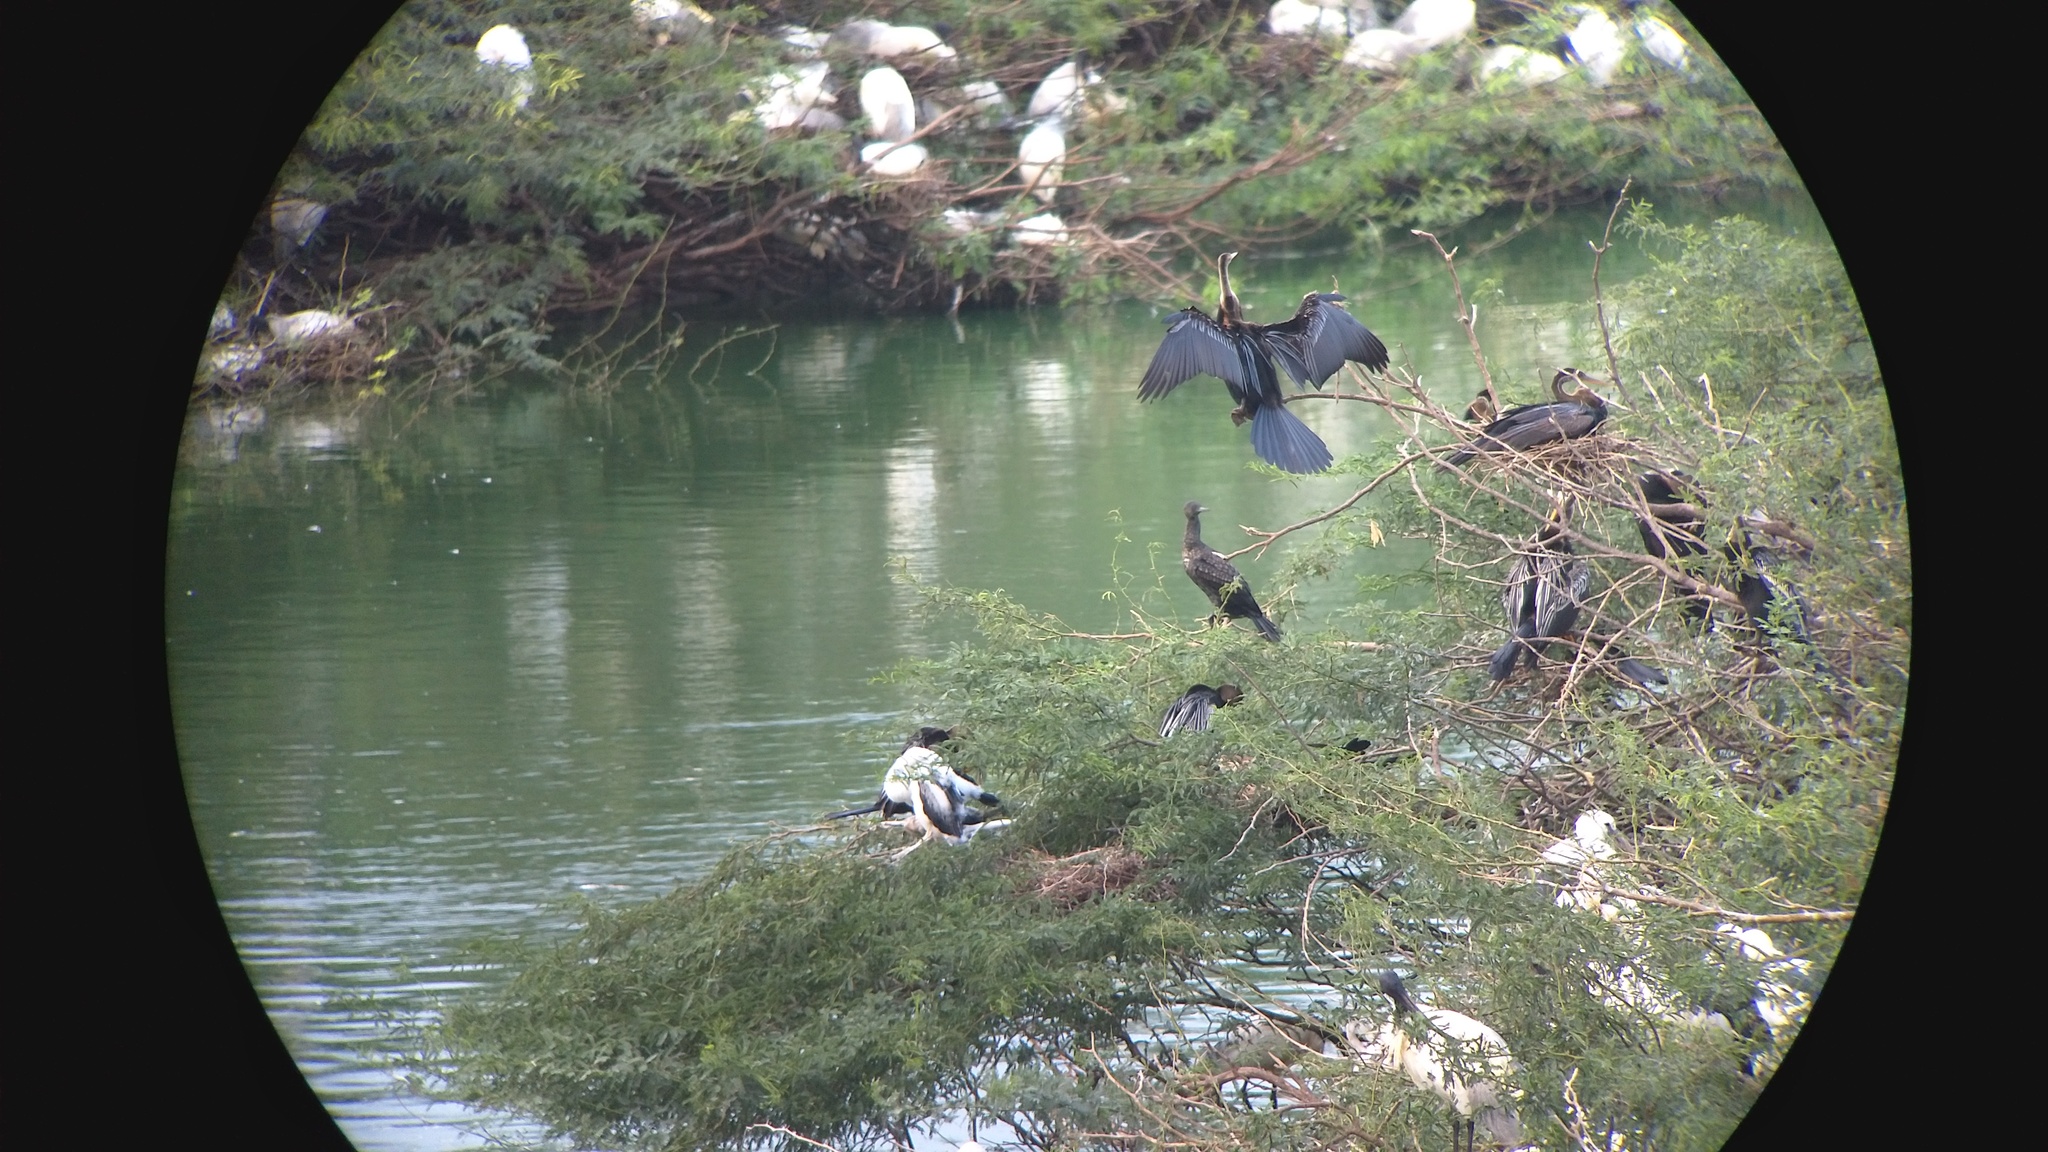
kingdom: Animalia
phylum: Chordata
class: Aves
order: Suliformes
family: Anhingidae
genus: Anhinga
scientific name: Anhinga melanogaster
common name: Oriental darter
